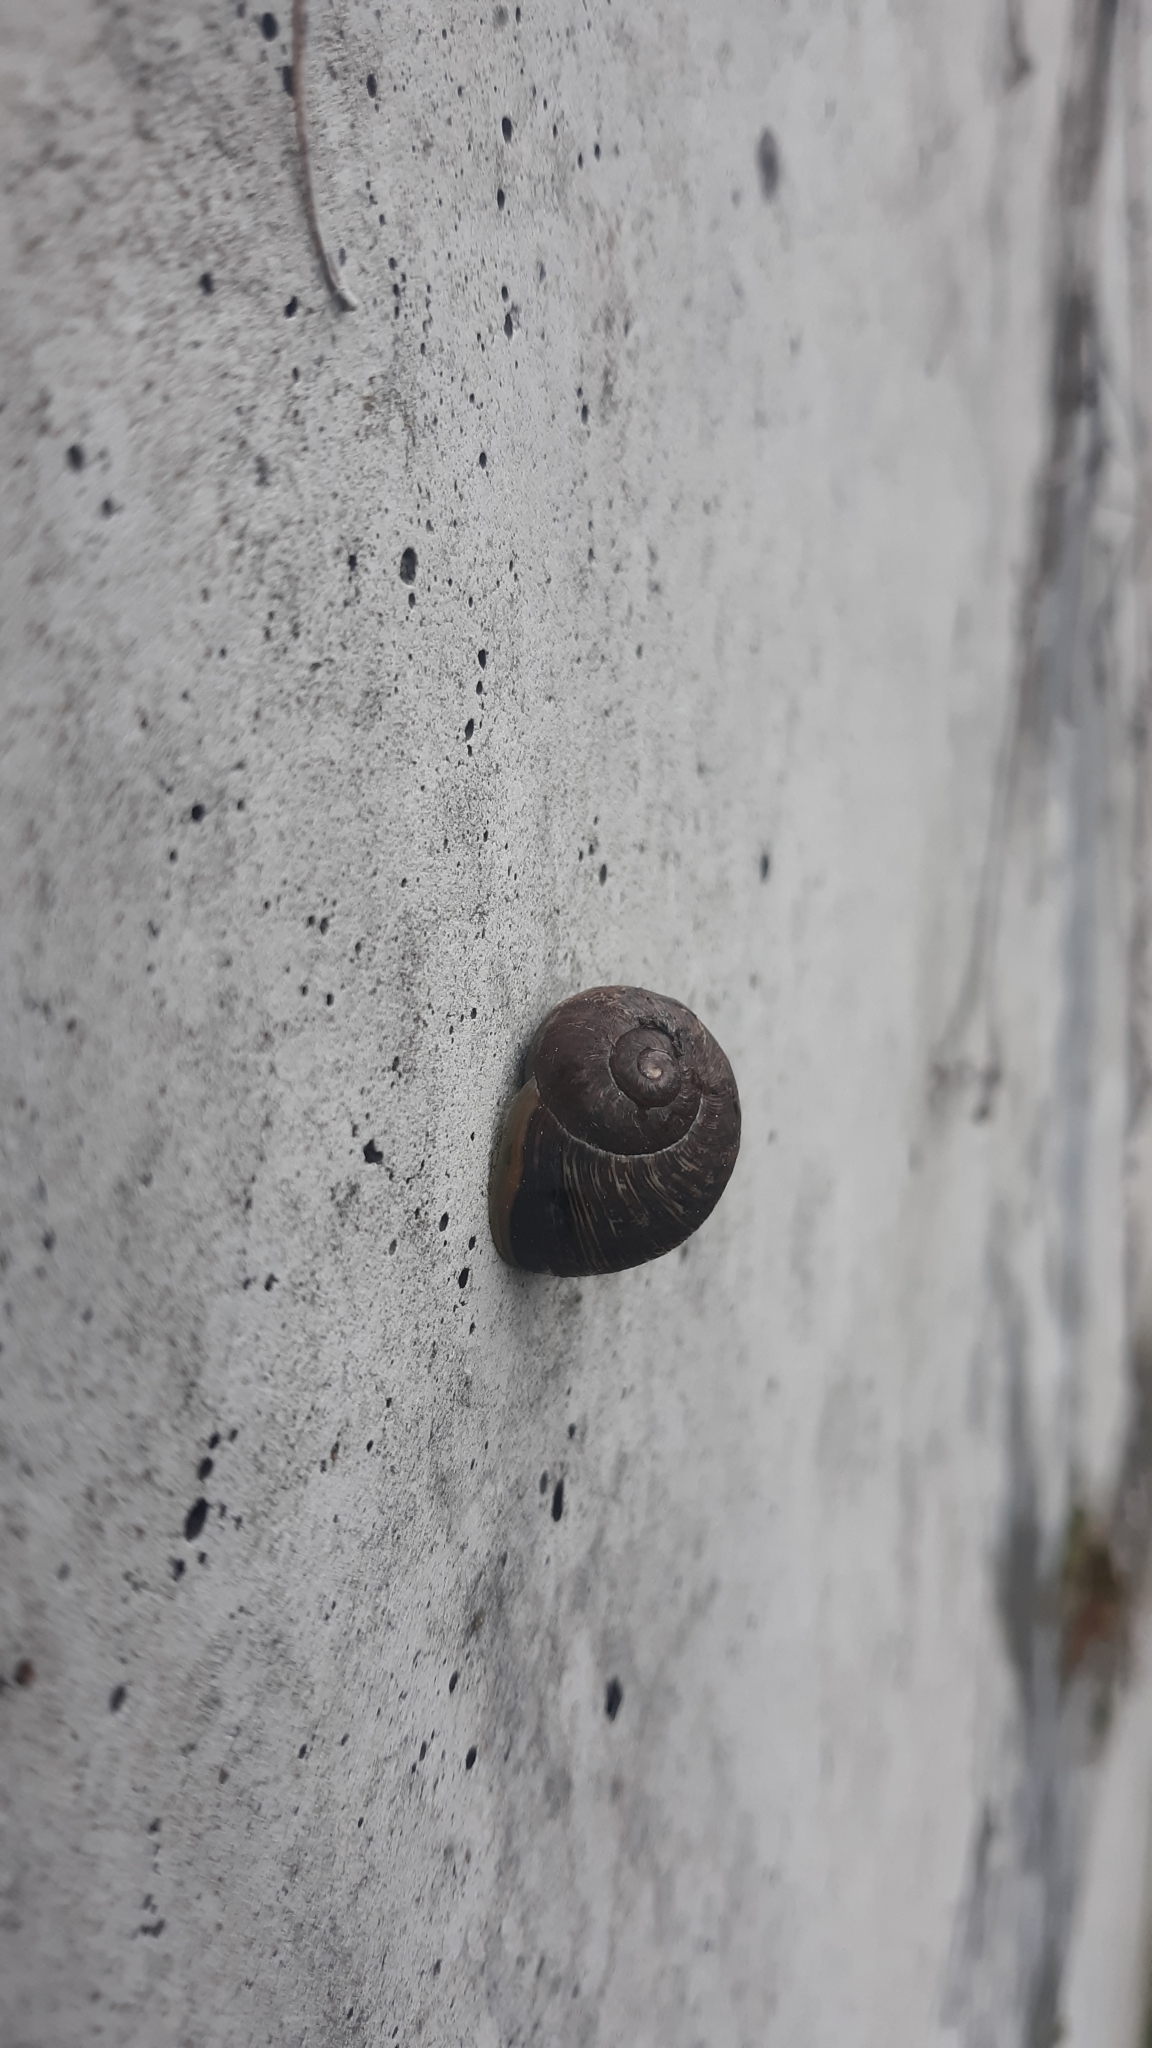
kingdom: Animalia
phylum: Mollusca
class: Gastropoda
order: Stylommatophora
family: Helicidae
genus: Cornu
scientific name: Cornu aspersum
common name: Brown garden snail
